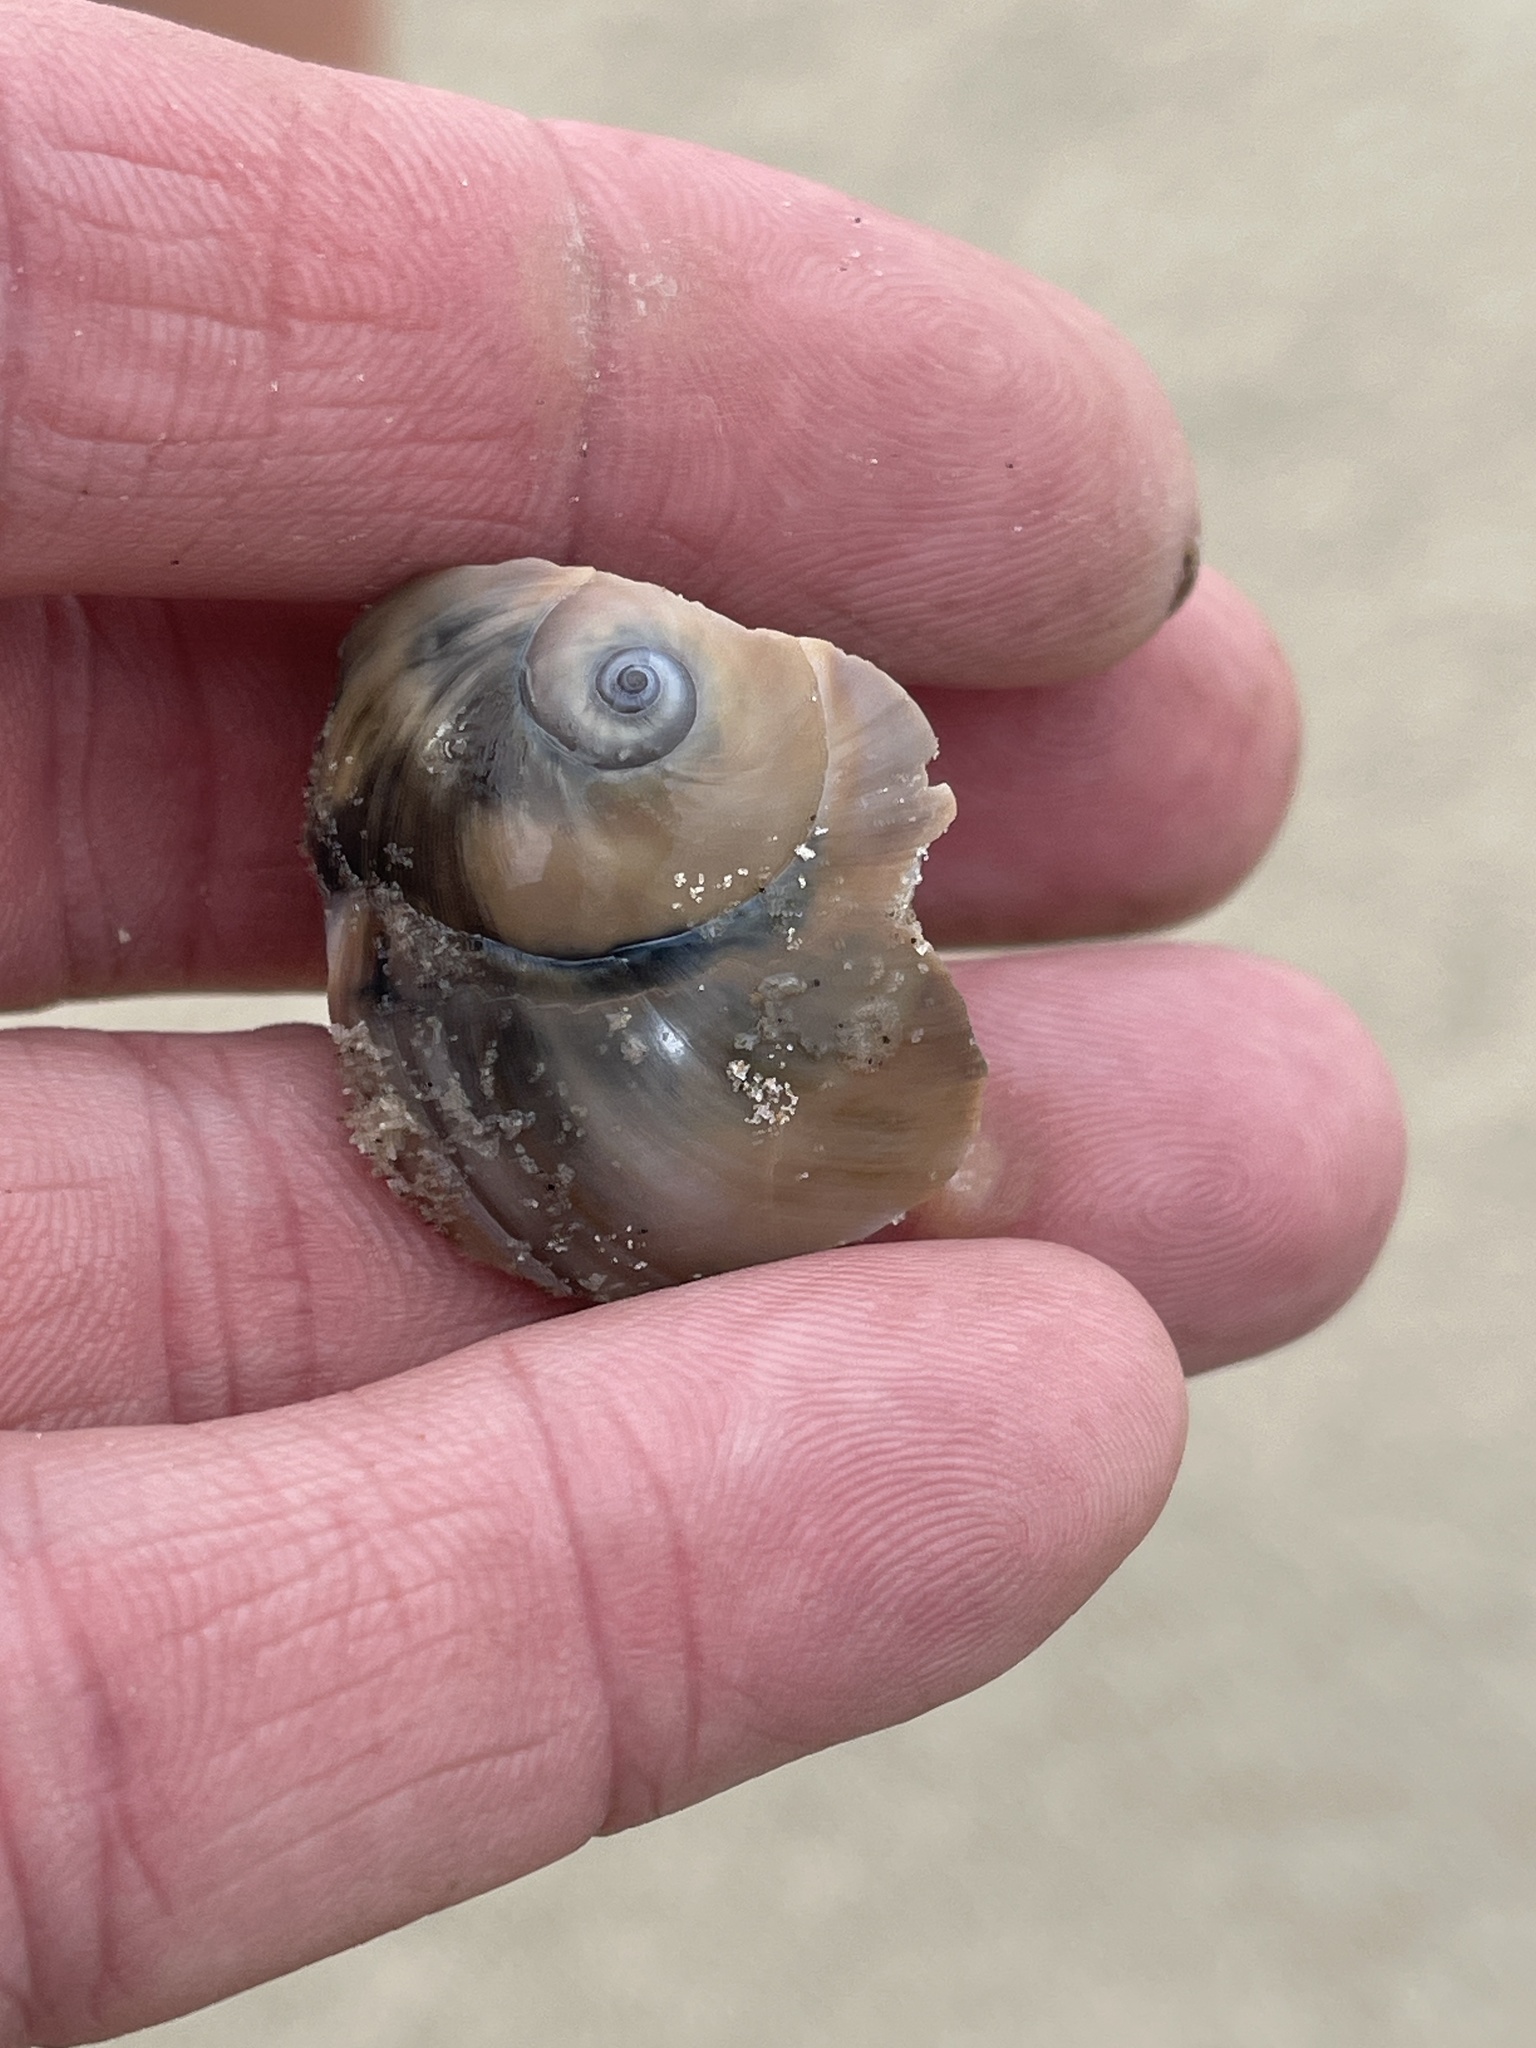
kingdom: Animalia
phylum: Mollusca
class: Gastropoda
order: Littorinimorpha
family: Naticidae
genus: Neverita
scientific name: Neverita duplicata
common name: Lobed moonsnail
